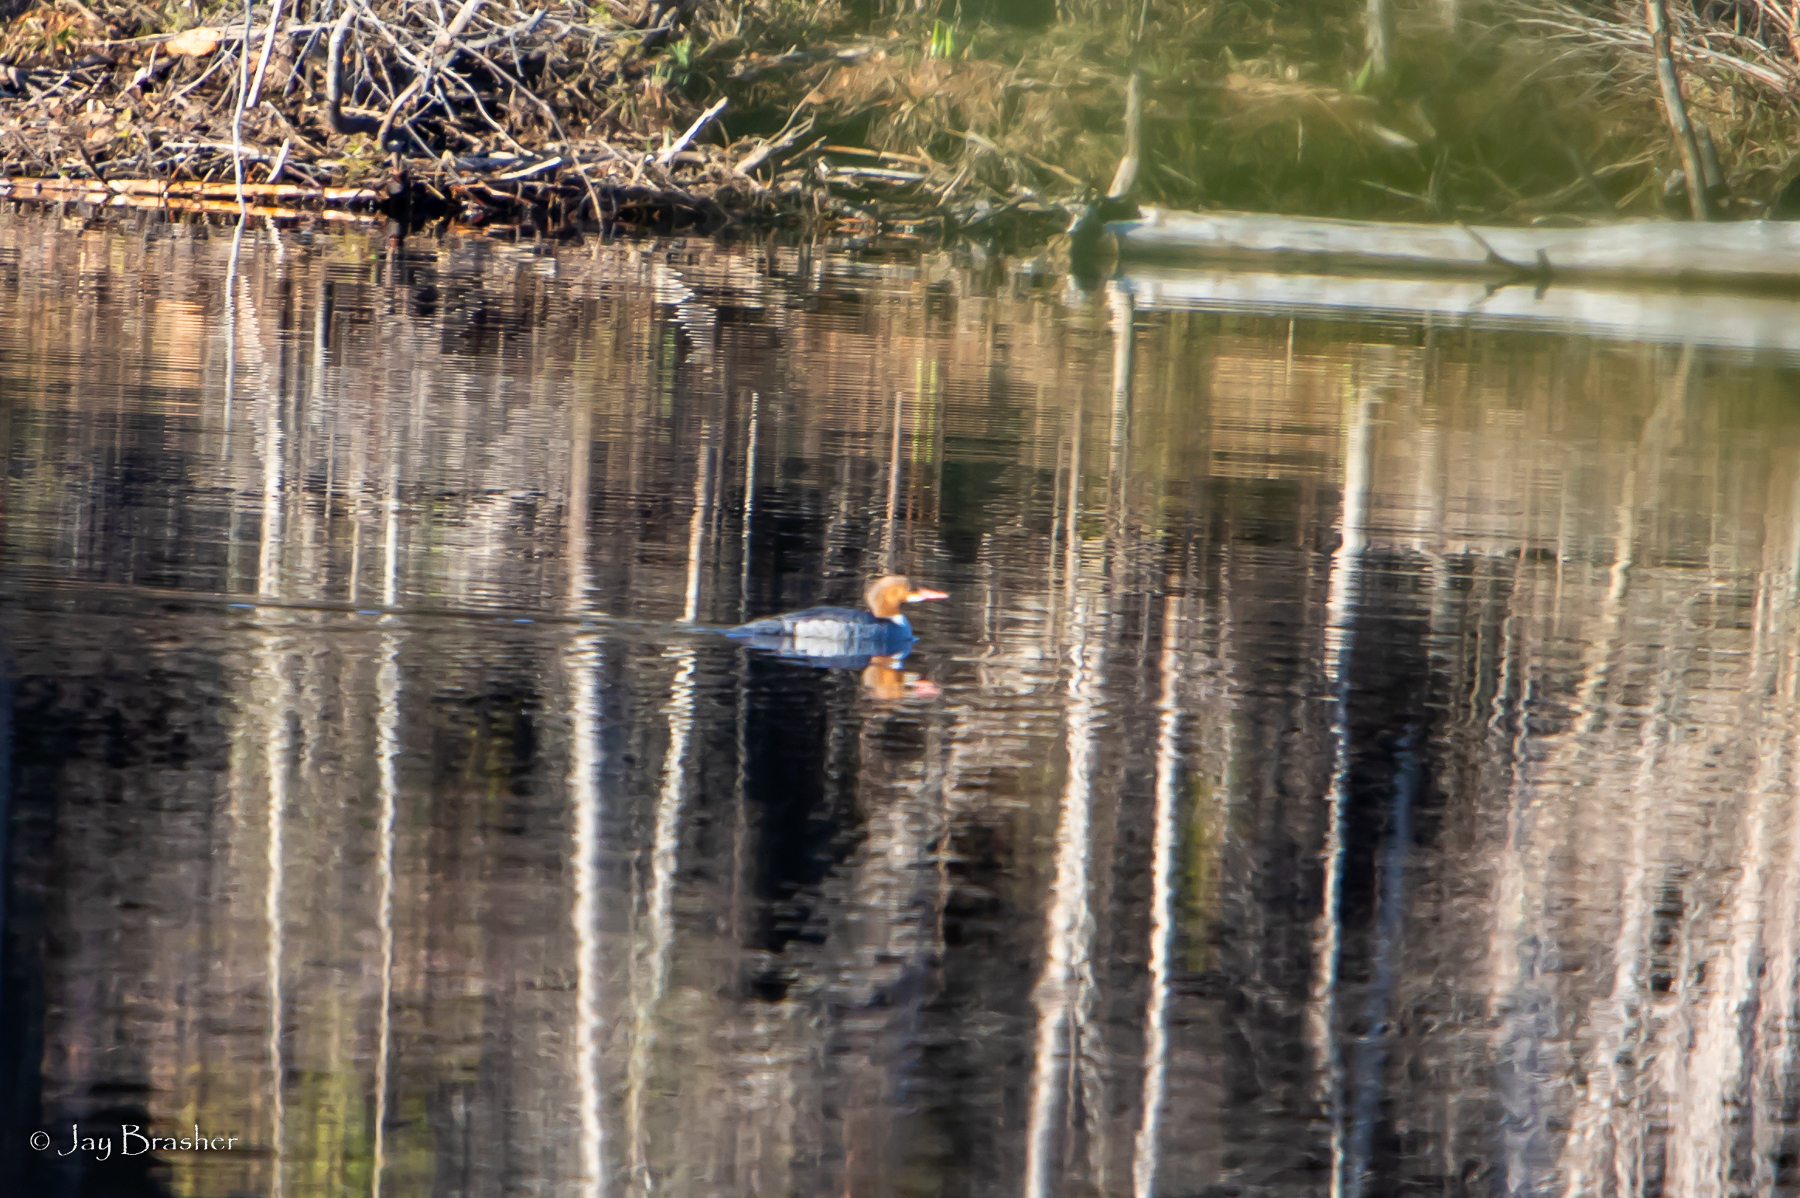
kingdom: Animalia
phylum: Chordata
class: Aves
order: Anseriformes
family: Anatidae
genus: Mergus
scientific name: Mergus merganser
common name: Common merganser
